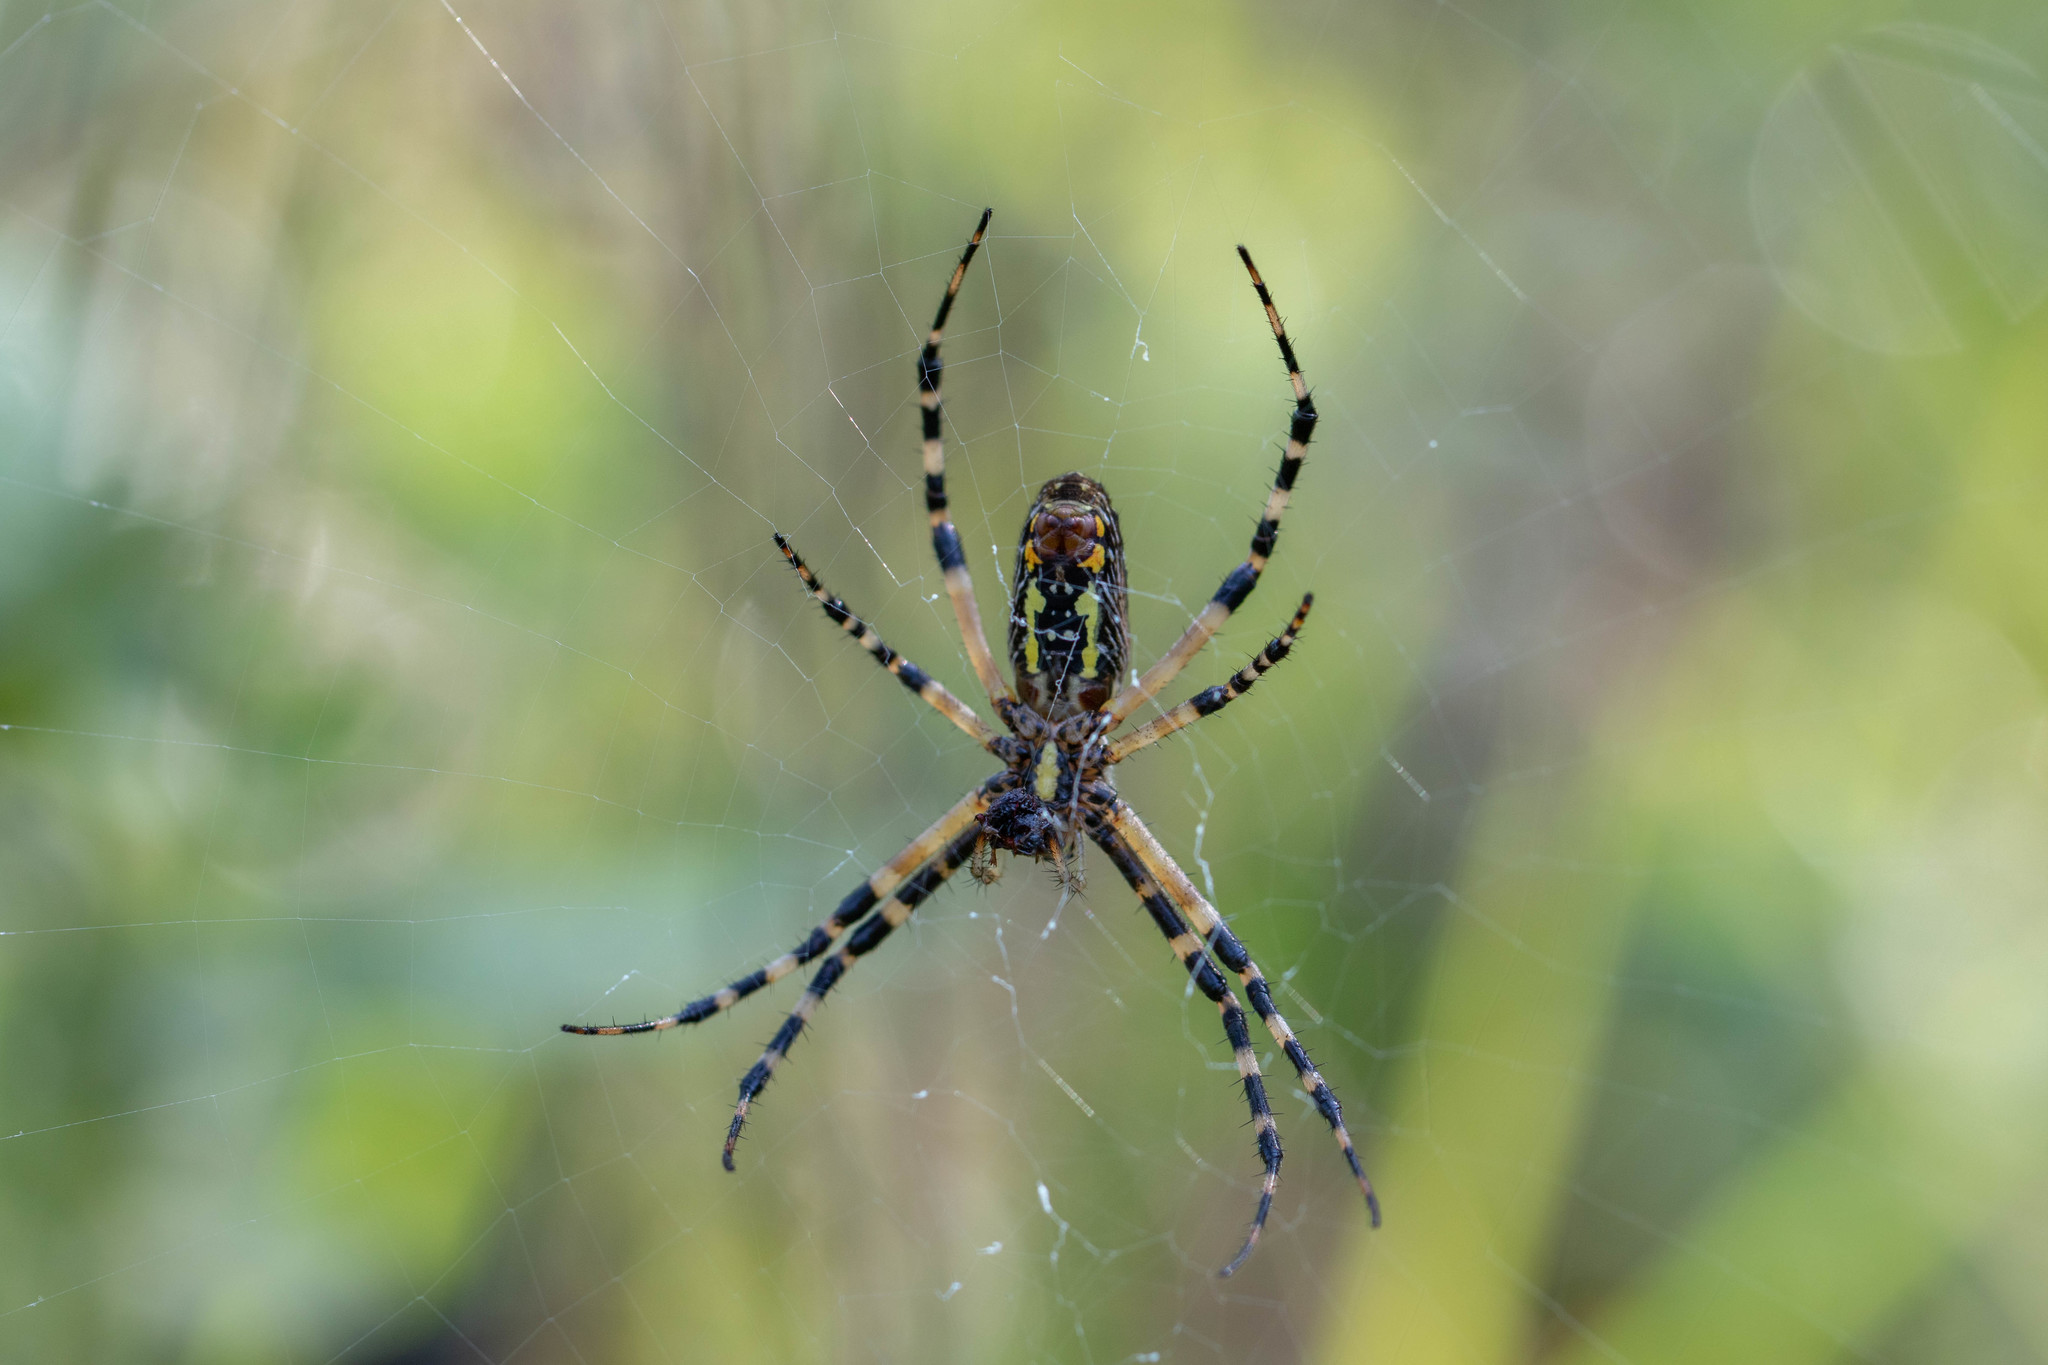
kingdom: Animalia
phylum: Arthropoda
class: Arachnida
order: Araneae
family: Araneidae
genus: Argiope
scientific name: Argiope aurantia
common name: Orb weavers
